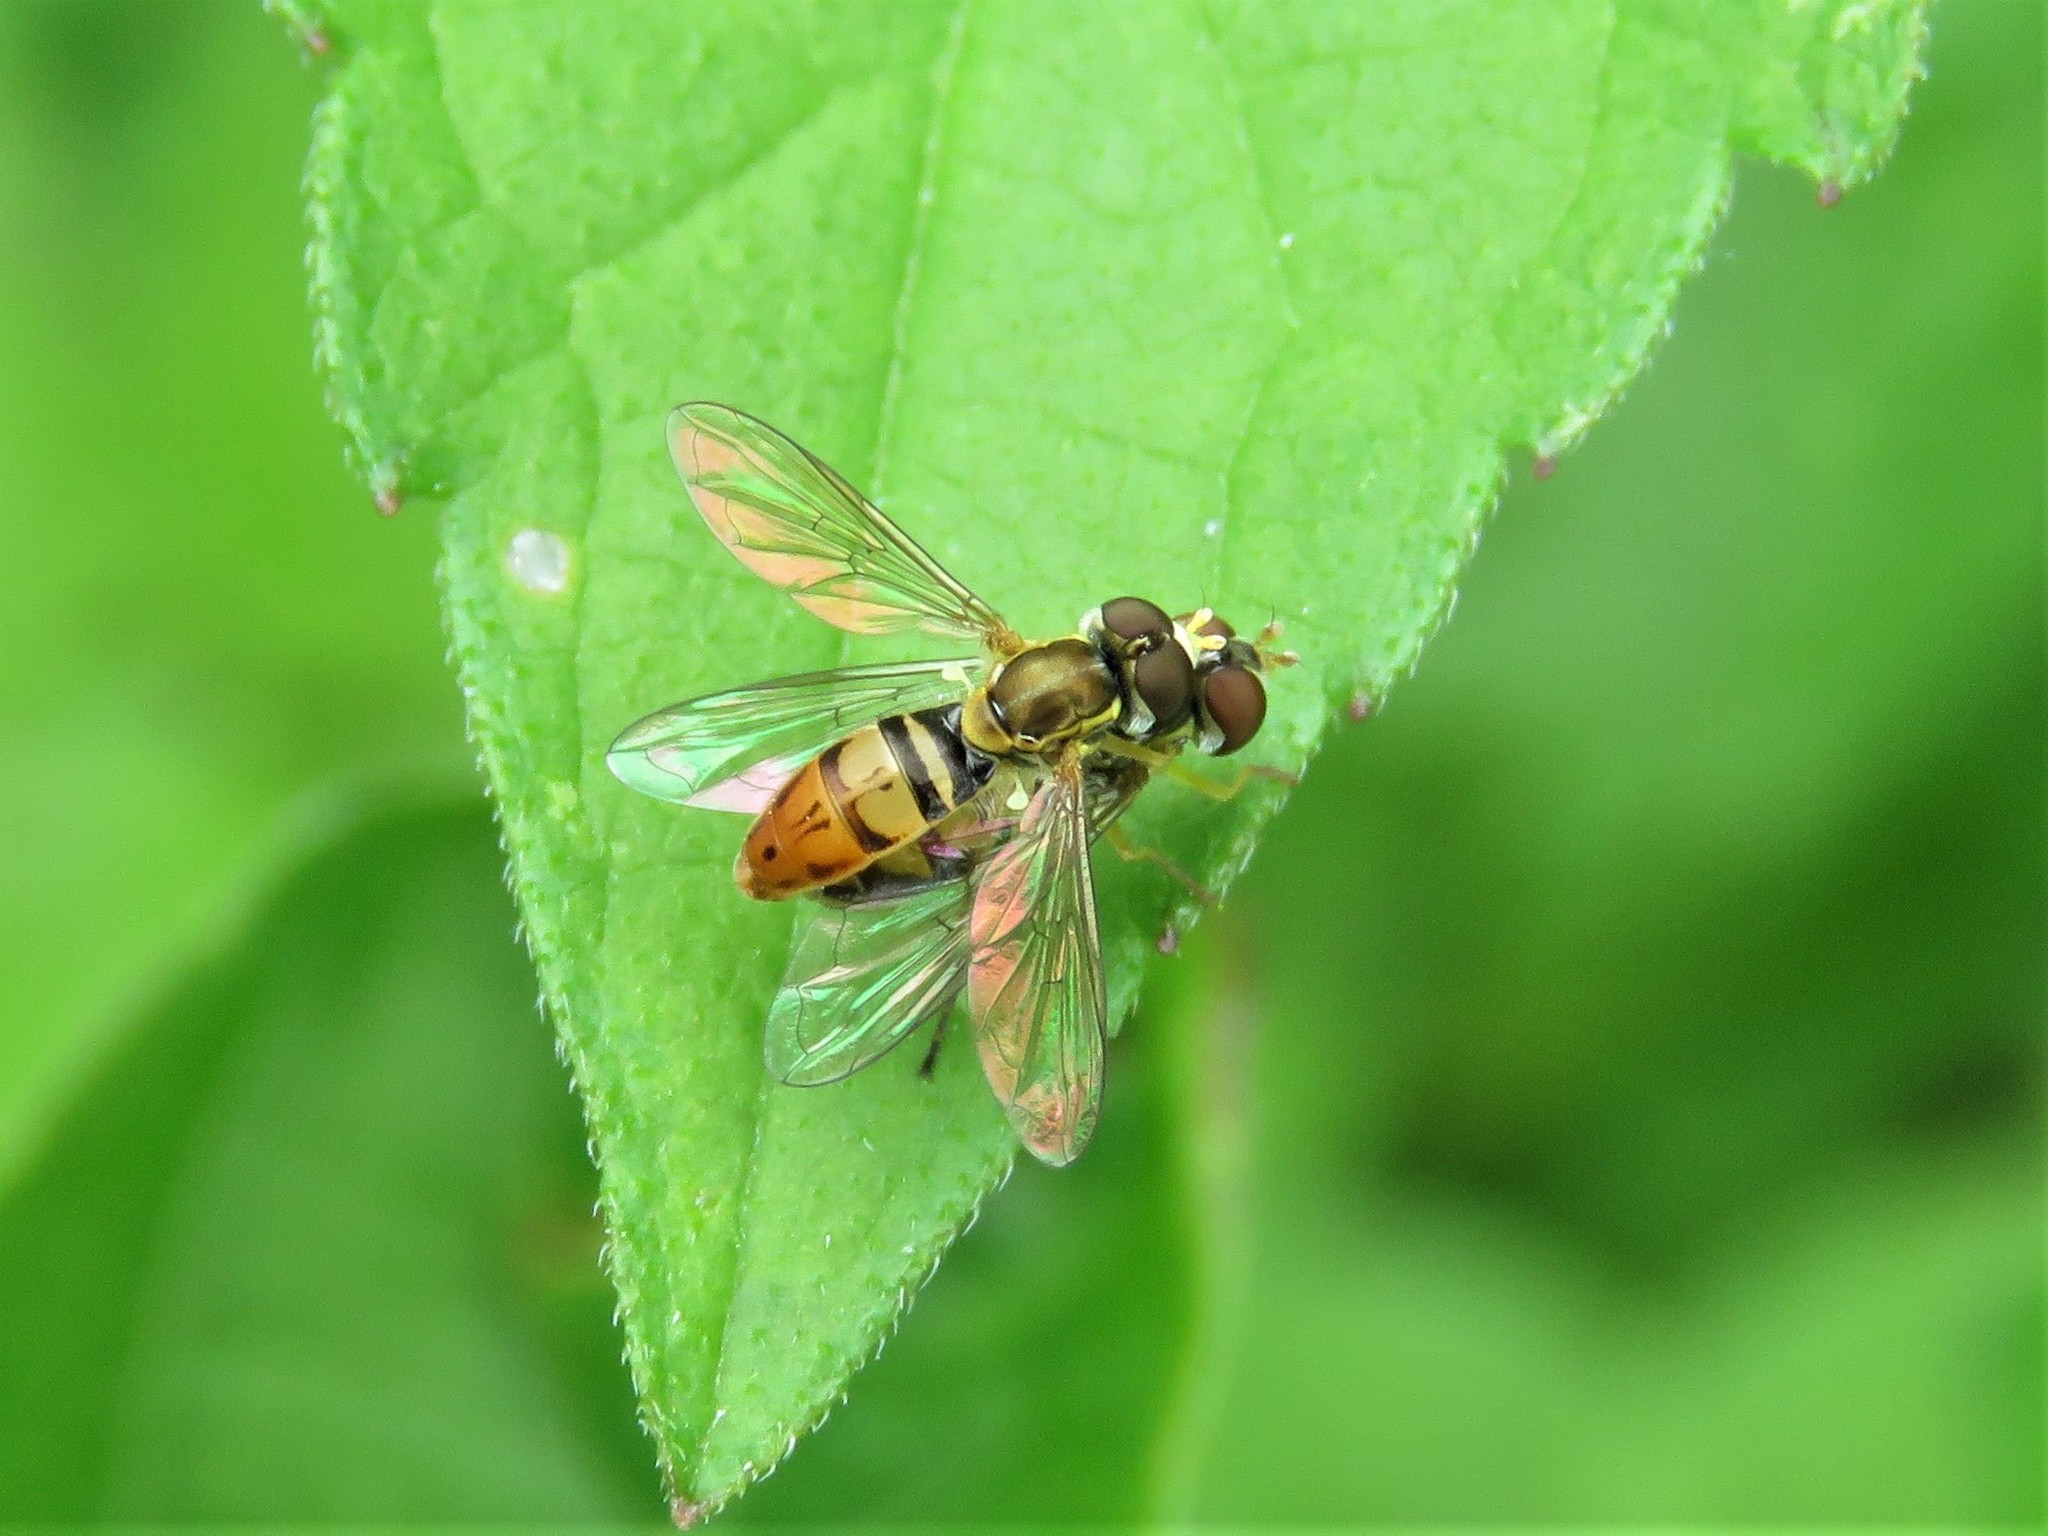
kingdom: Animalia
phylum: Arthropoda
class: Insecta
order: Diptera
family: Syrphidae
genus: Toxomerus
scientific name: Toxomerus marginatus
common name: Syrphid fly
